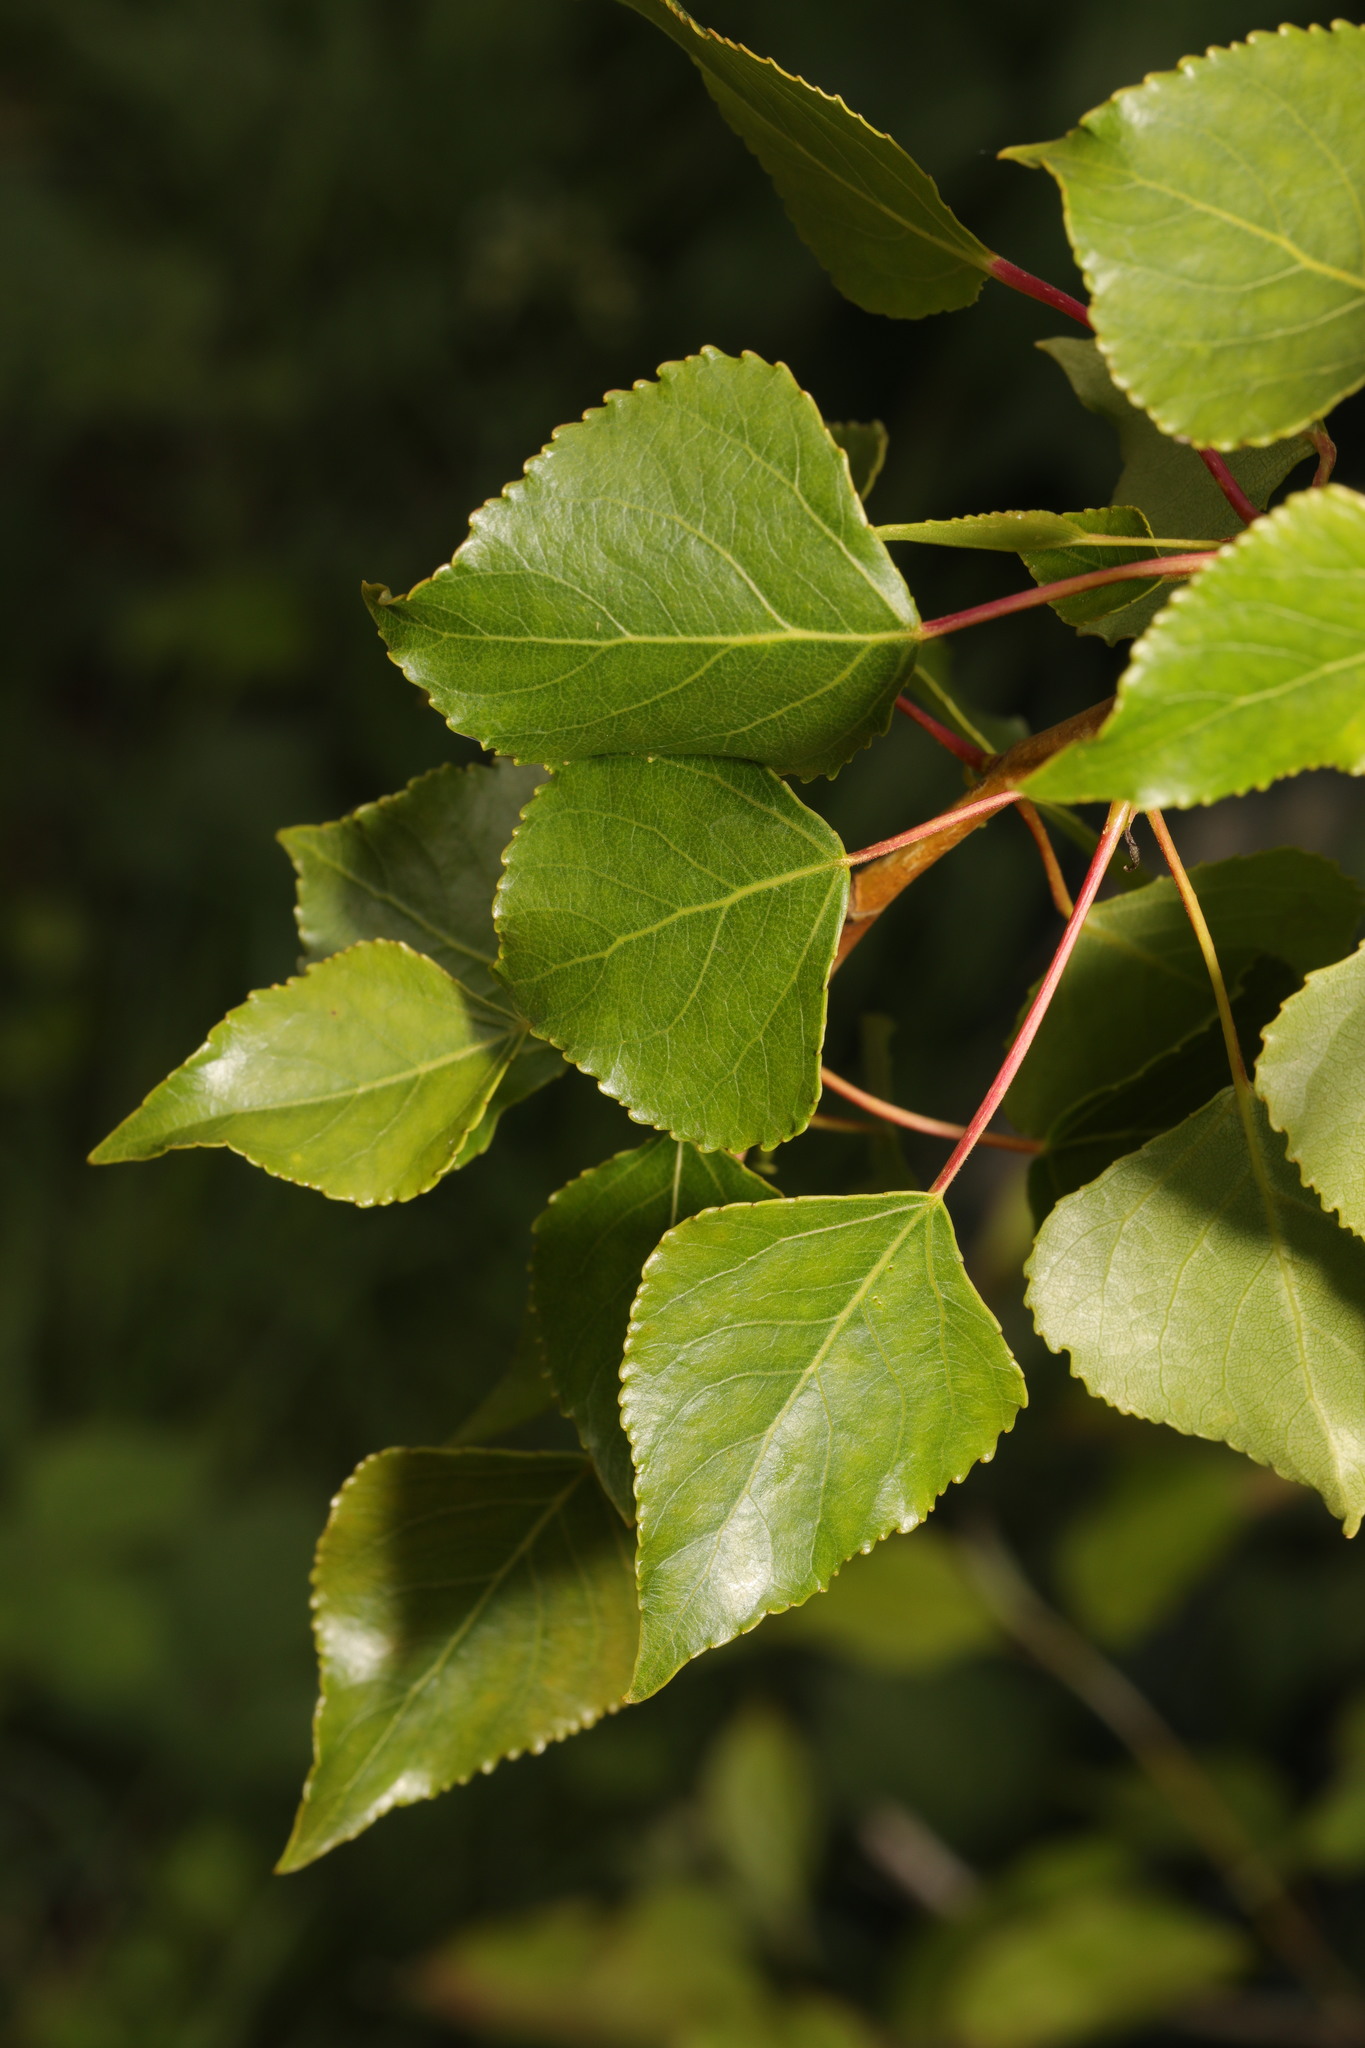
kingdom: Plantae
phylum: Tracheophyta
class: Magnoliopsida
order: Malpighiales
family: Salicaceae
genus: Populus
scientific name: Populus nigra
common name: Black poplar
